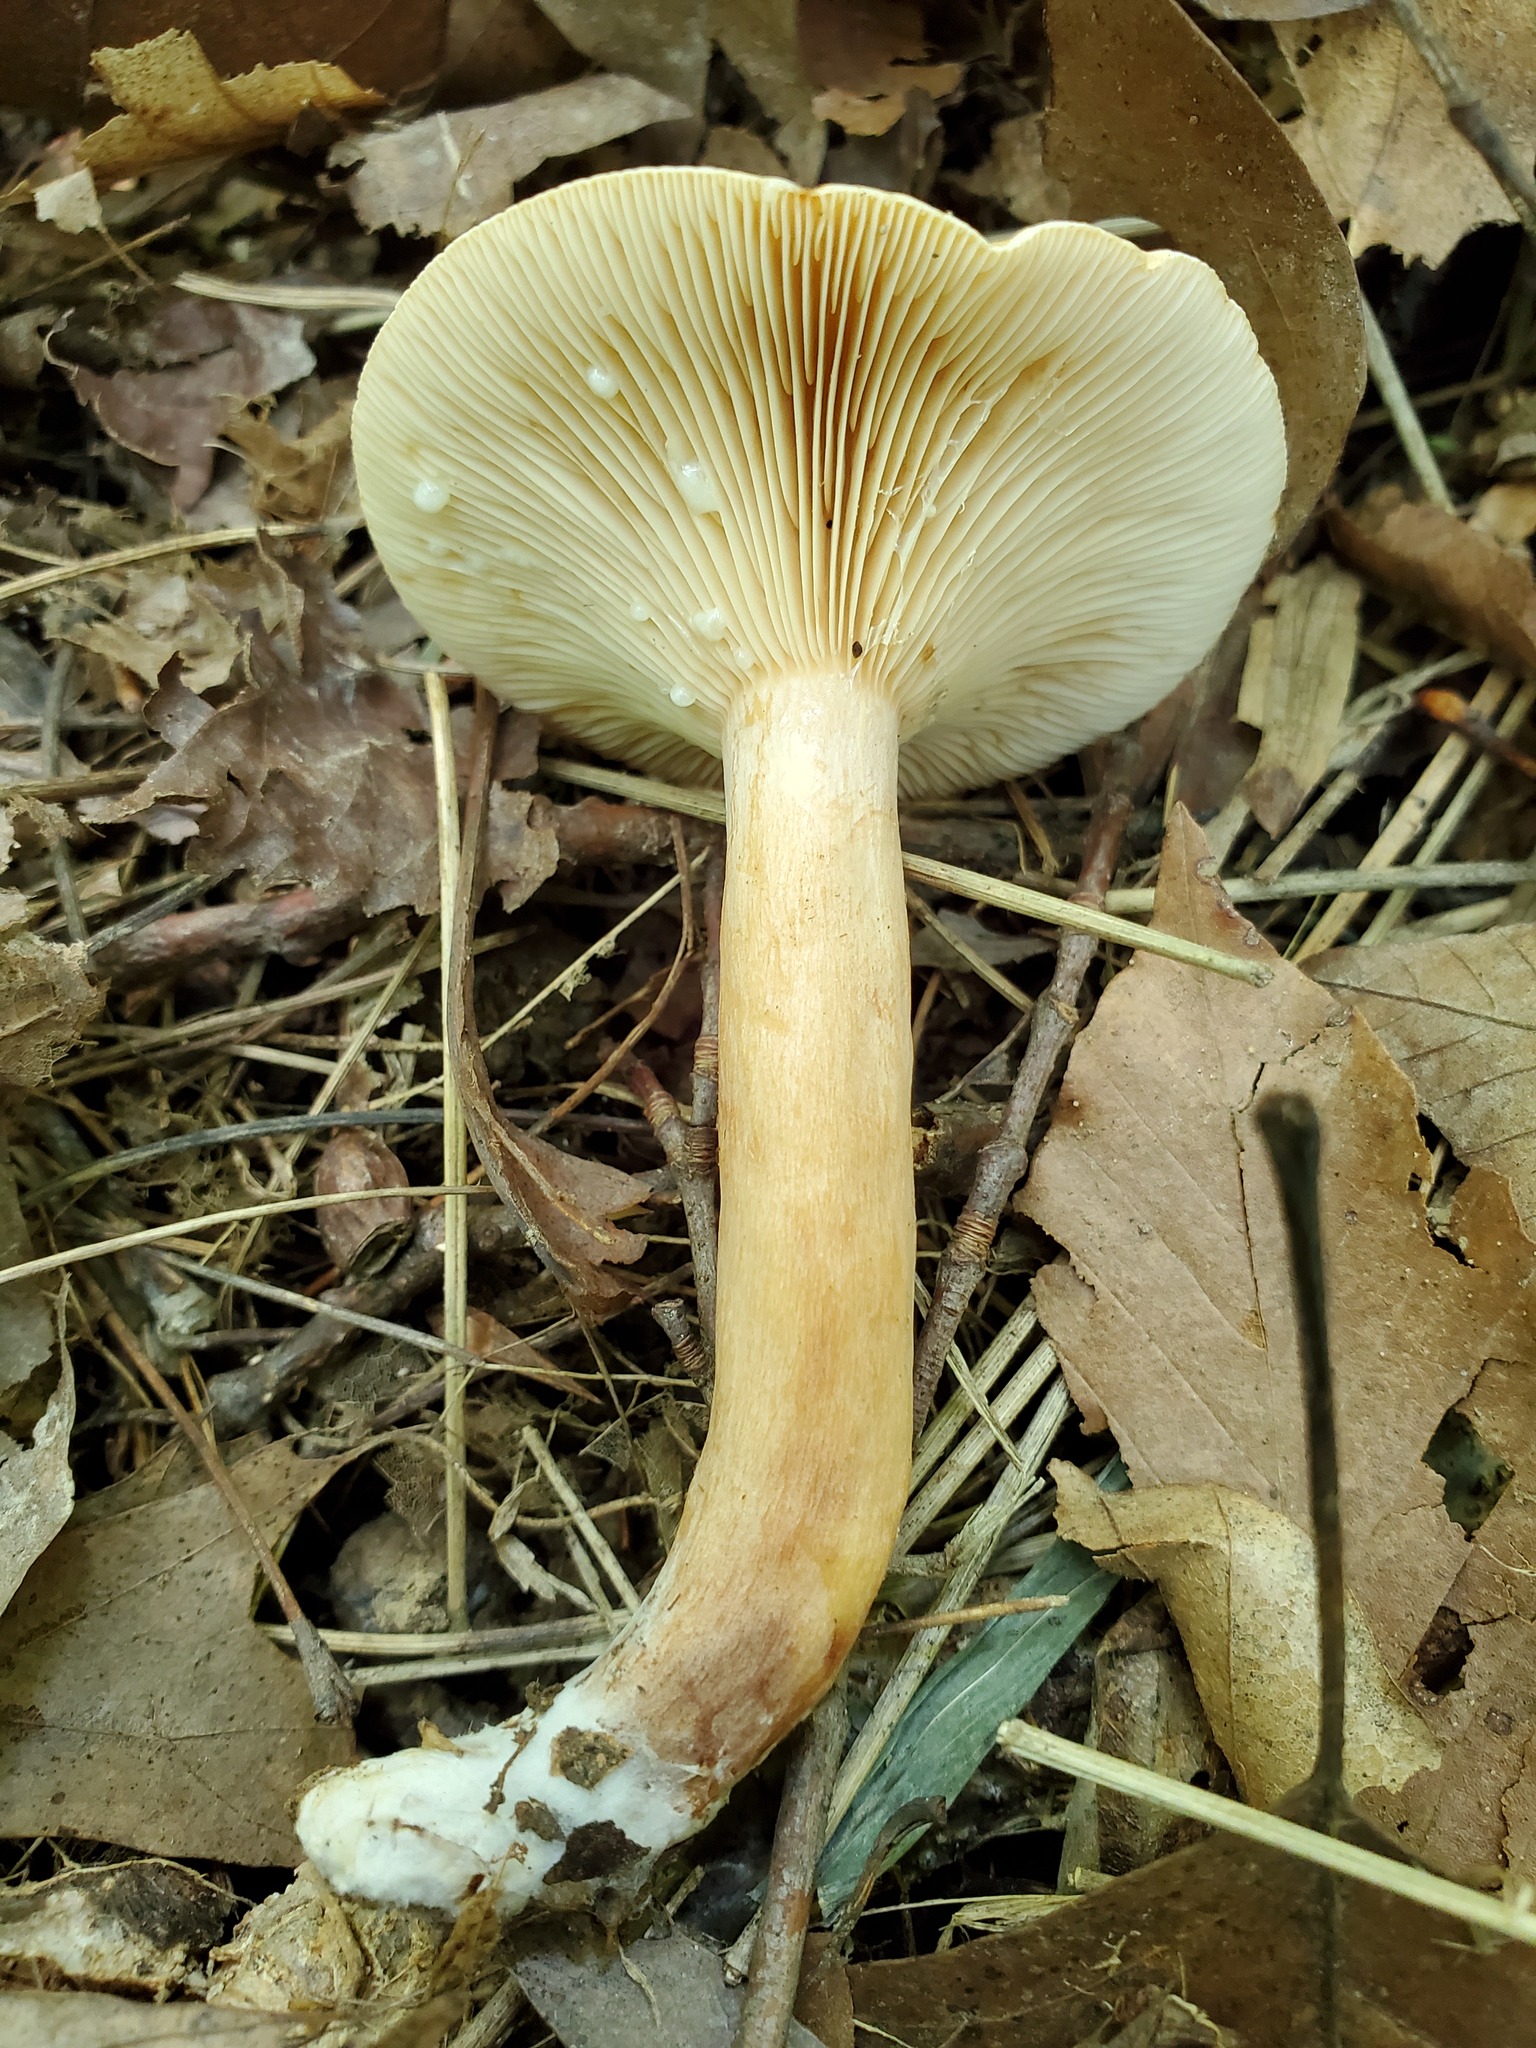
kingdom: Fungi
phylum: Basidiomycota
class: Agaricomycetes
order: Russulales
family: Russulaceae
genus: Lactarius
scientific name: Lactarius quietus
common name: Oak milk-cap
